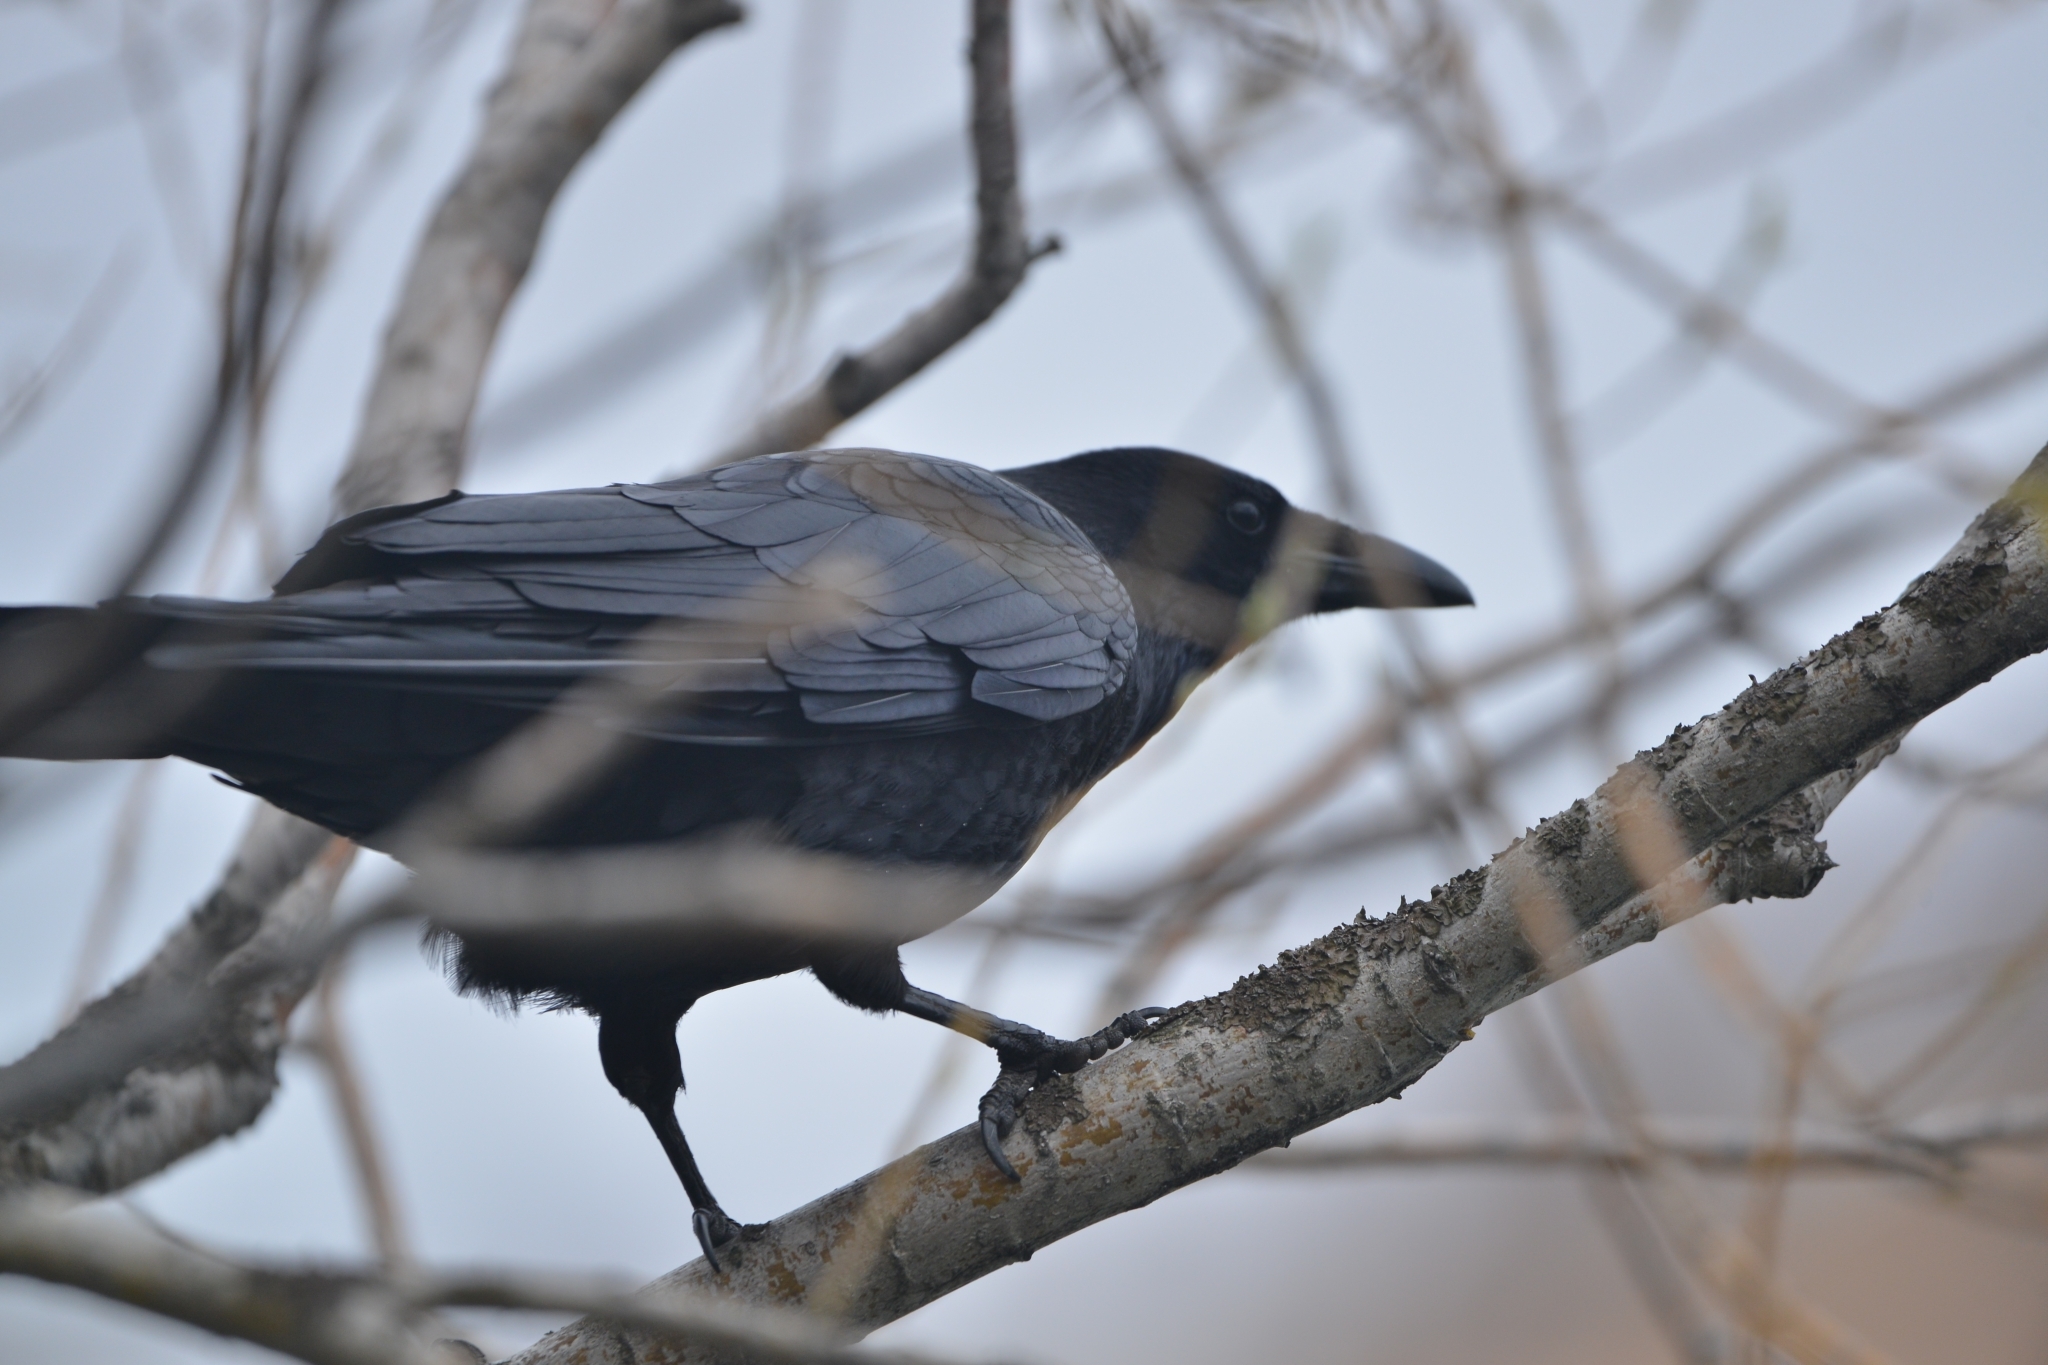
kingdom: Animalia
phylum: Chordata
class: Aves
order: Passeriformes
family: Corvidae
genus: Corvus
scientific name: Corvus corone
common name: Carrion crow
